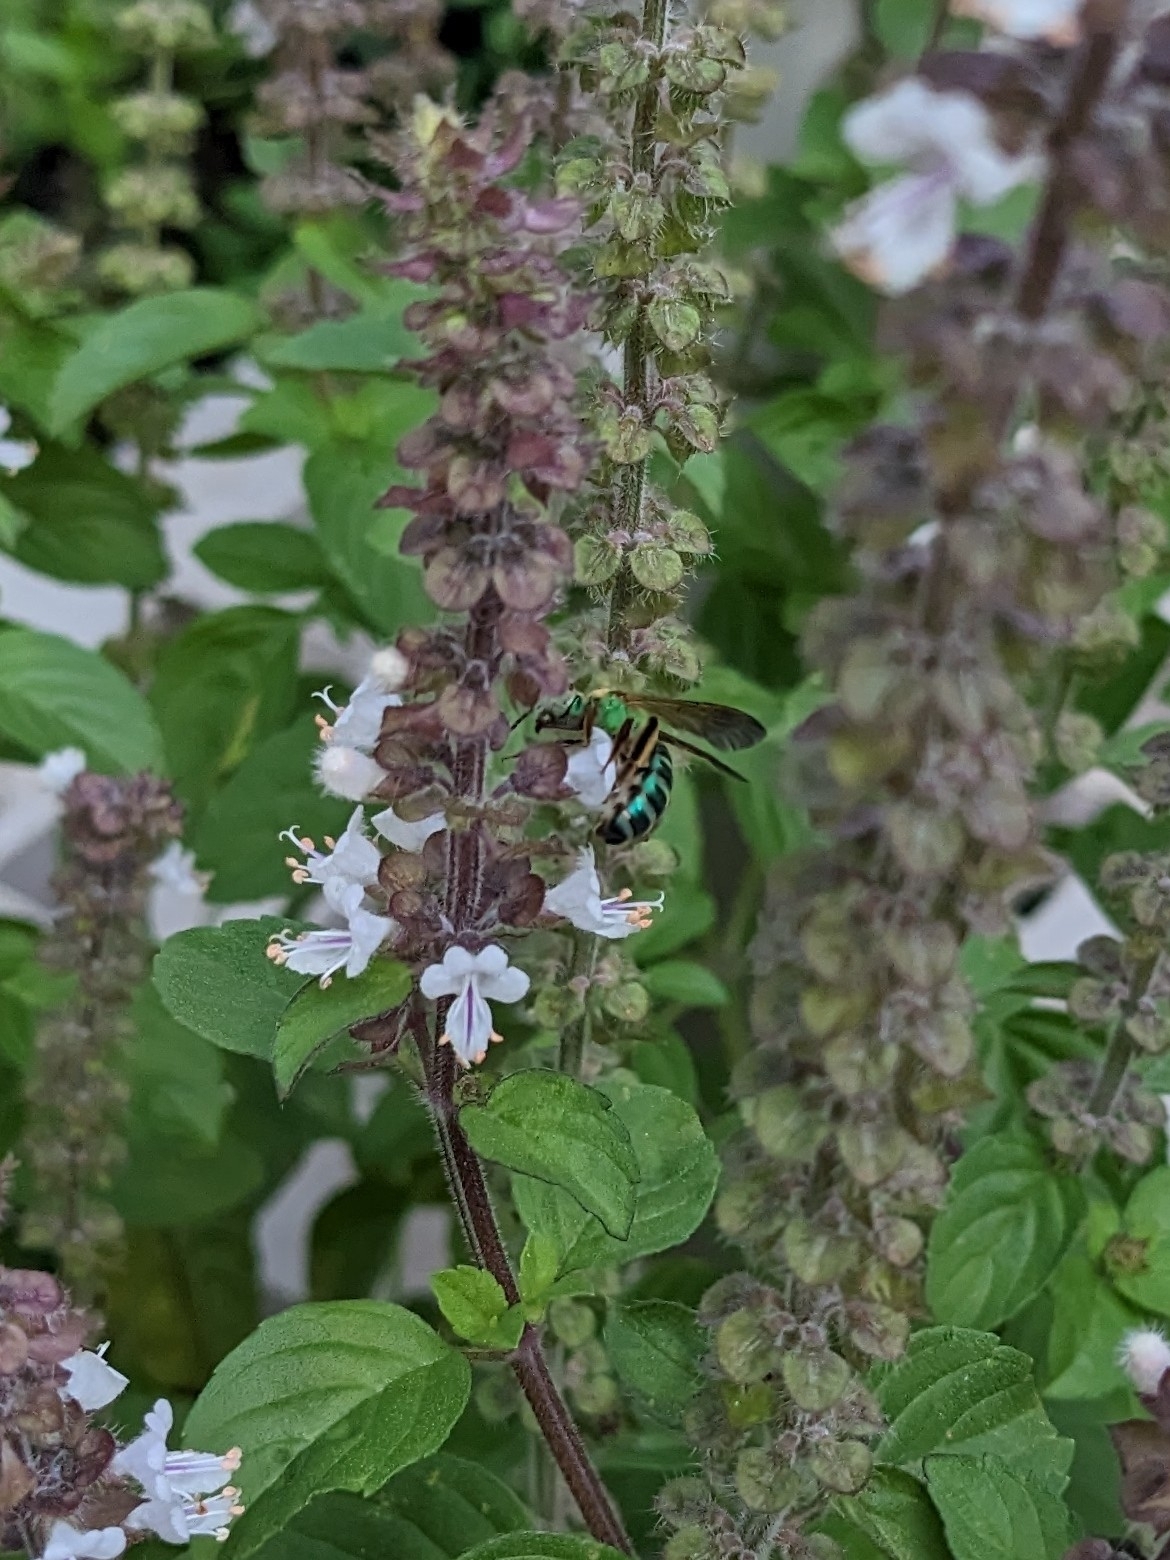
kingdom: Animalia
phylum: Arthropoda
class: Insecta
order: Hymenoptera
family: Halictidae
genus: Agapostemon
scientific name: Agapostemon splendens
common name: Brown-winged striped sweat bee
